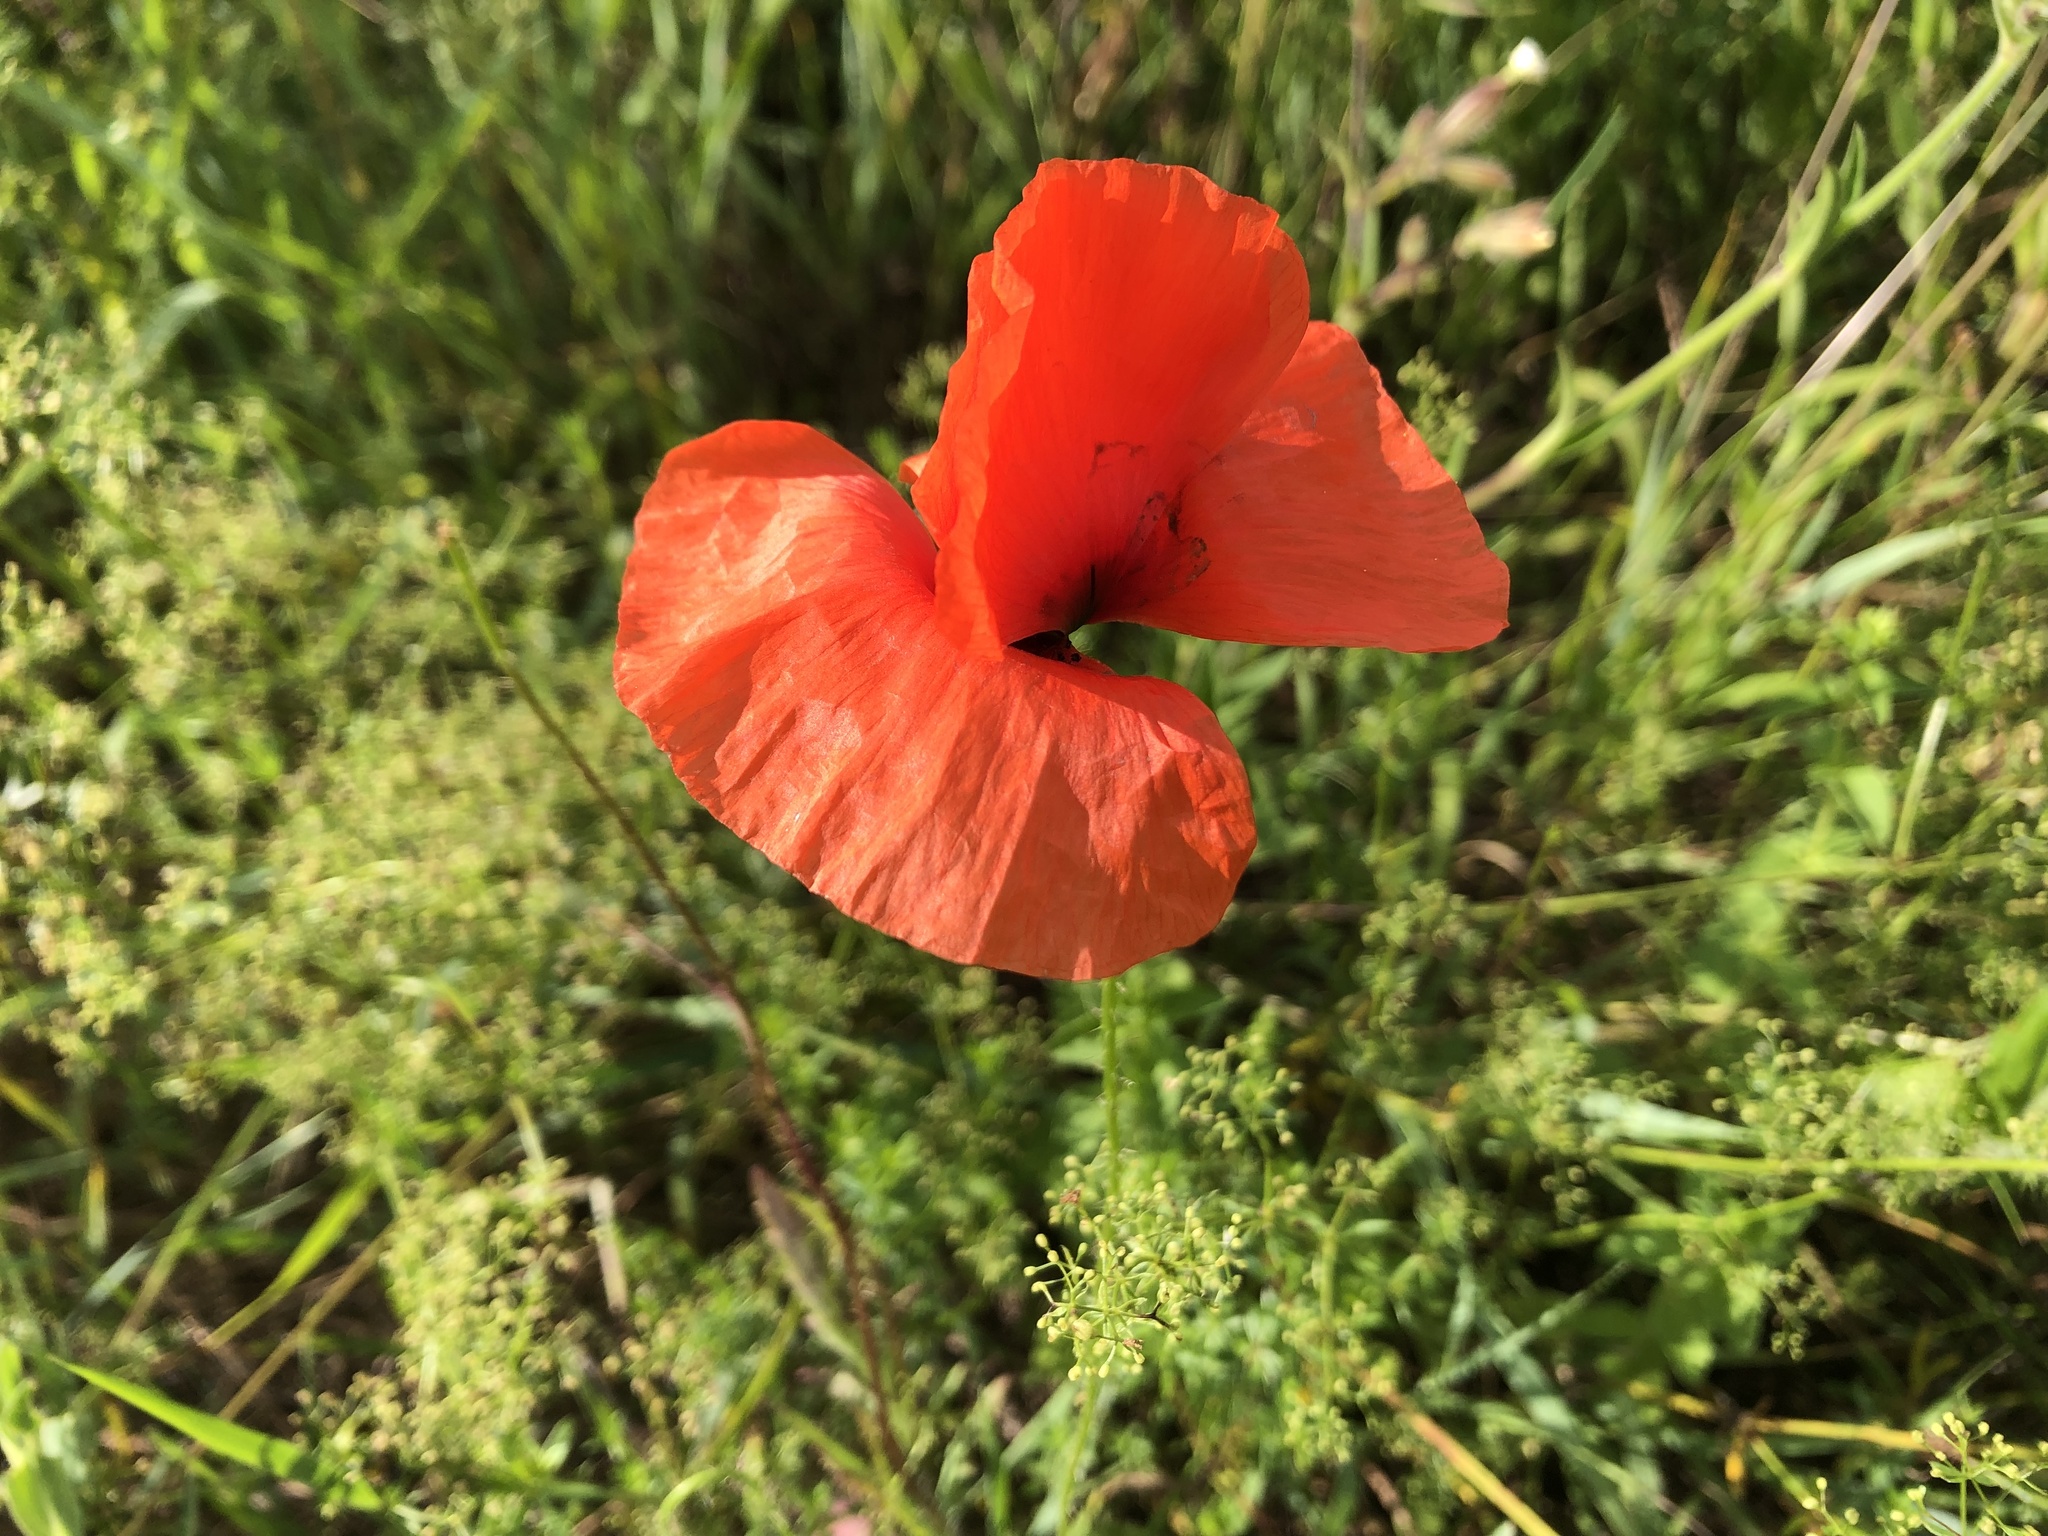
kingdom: Plantae
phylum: Tracheophyta
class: Magnoliopsida
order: Ranunculales
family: Papaveraceae
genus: Papaver
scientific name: Papaver rhoeas
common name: Corn poppy
